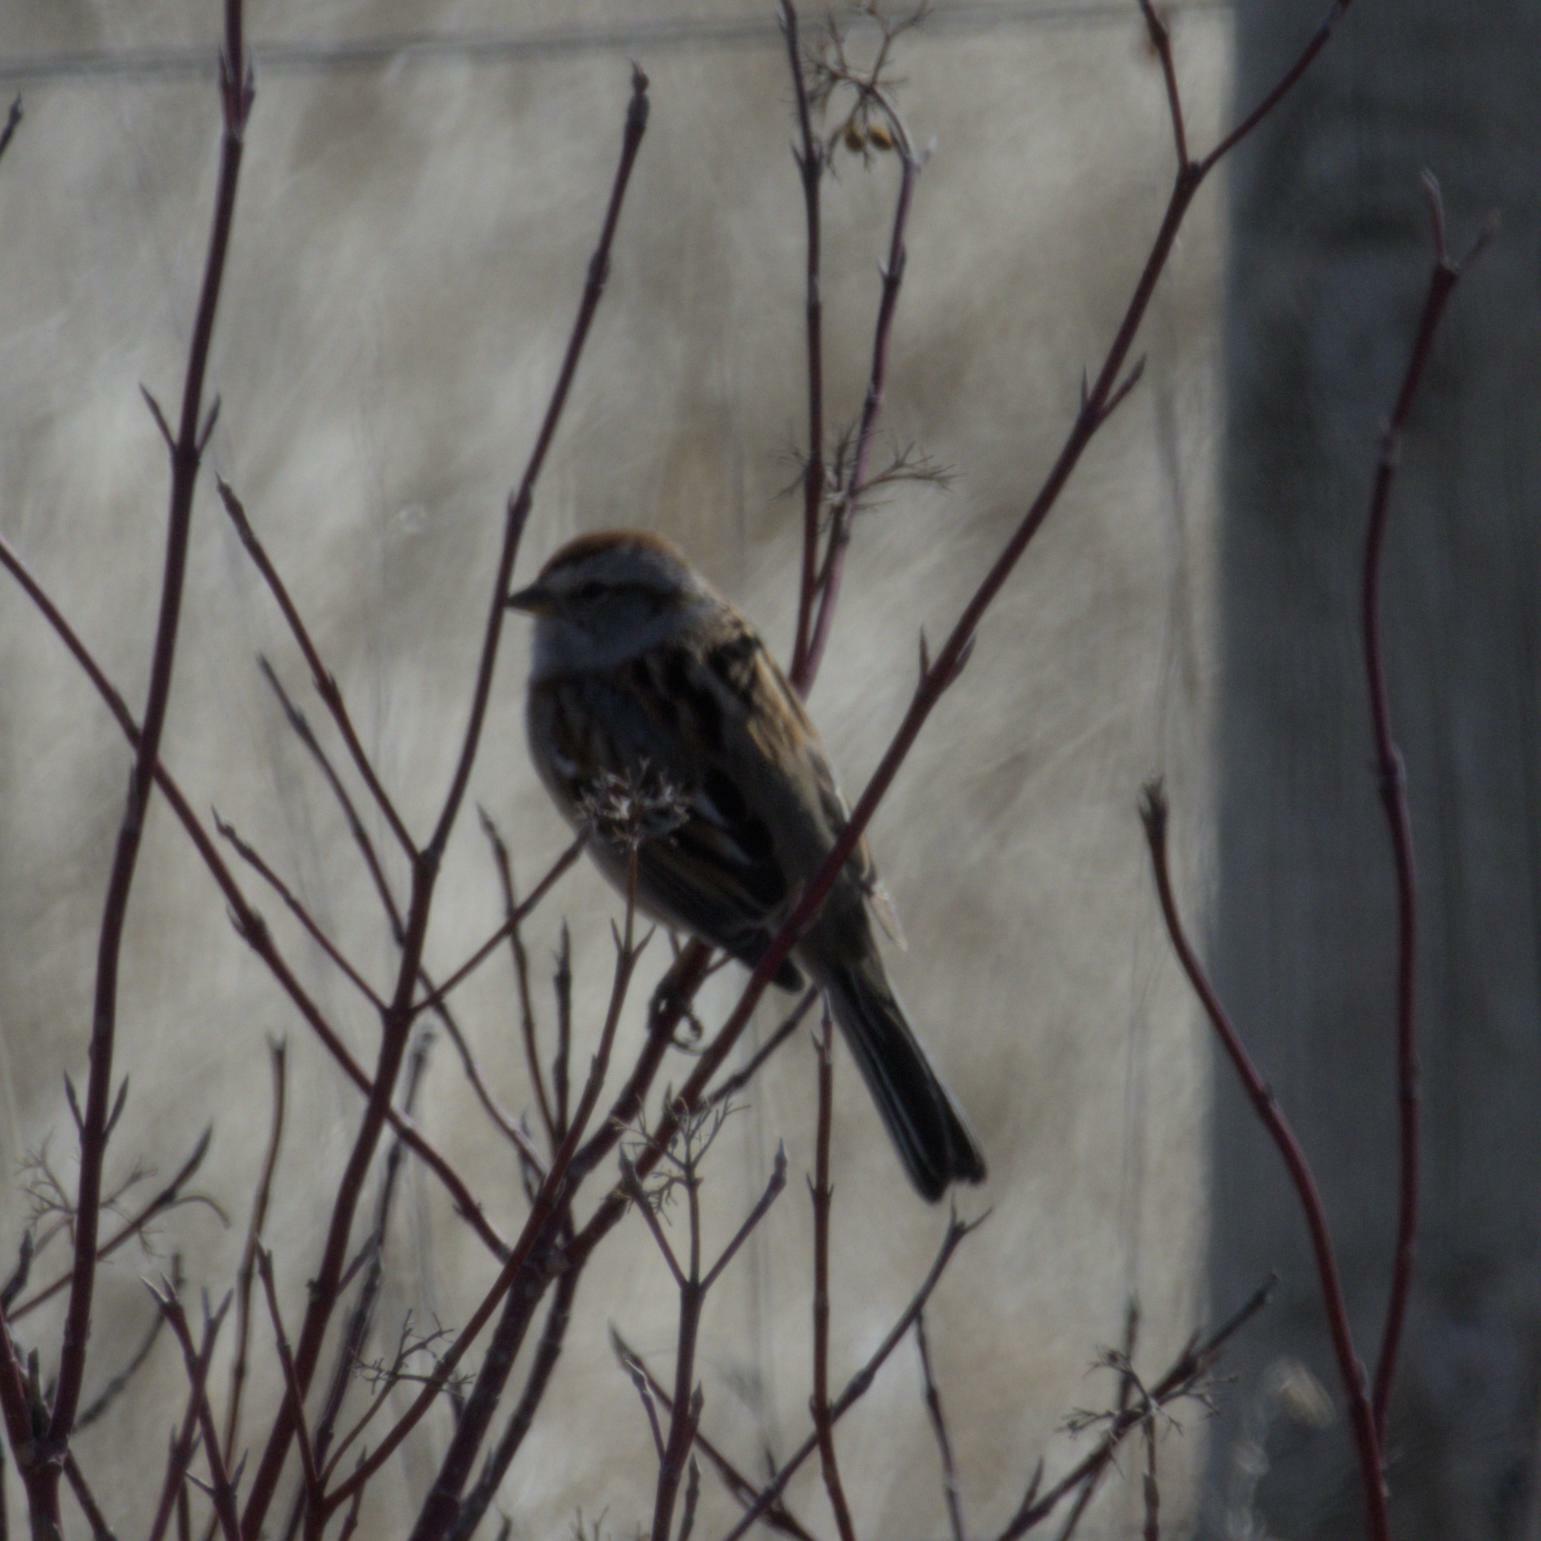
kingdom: Animalia
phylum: Chordata
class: Aves
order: Passeriformes
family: Passerellidae
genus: Spizelloides
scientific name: Spizelloides arborea
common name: American tree sparrow
